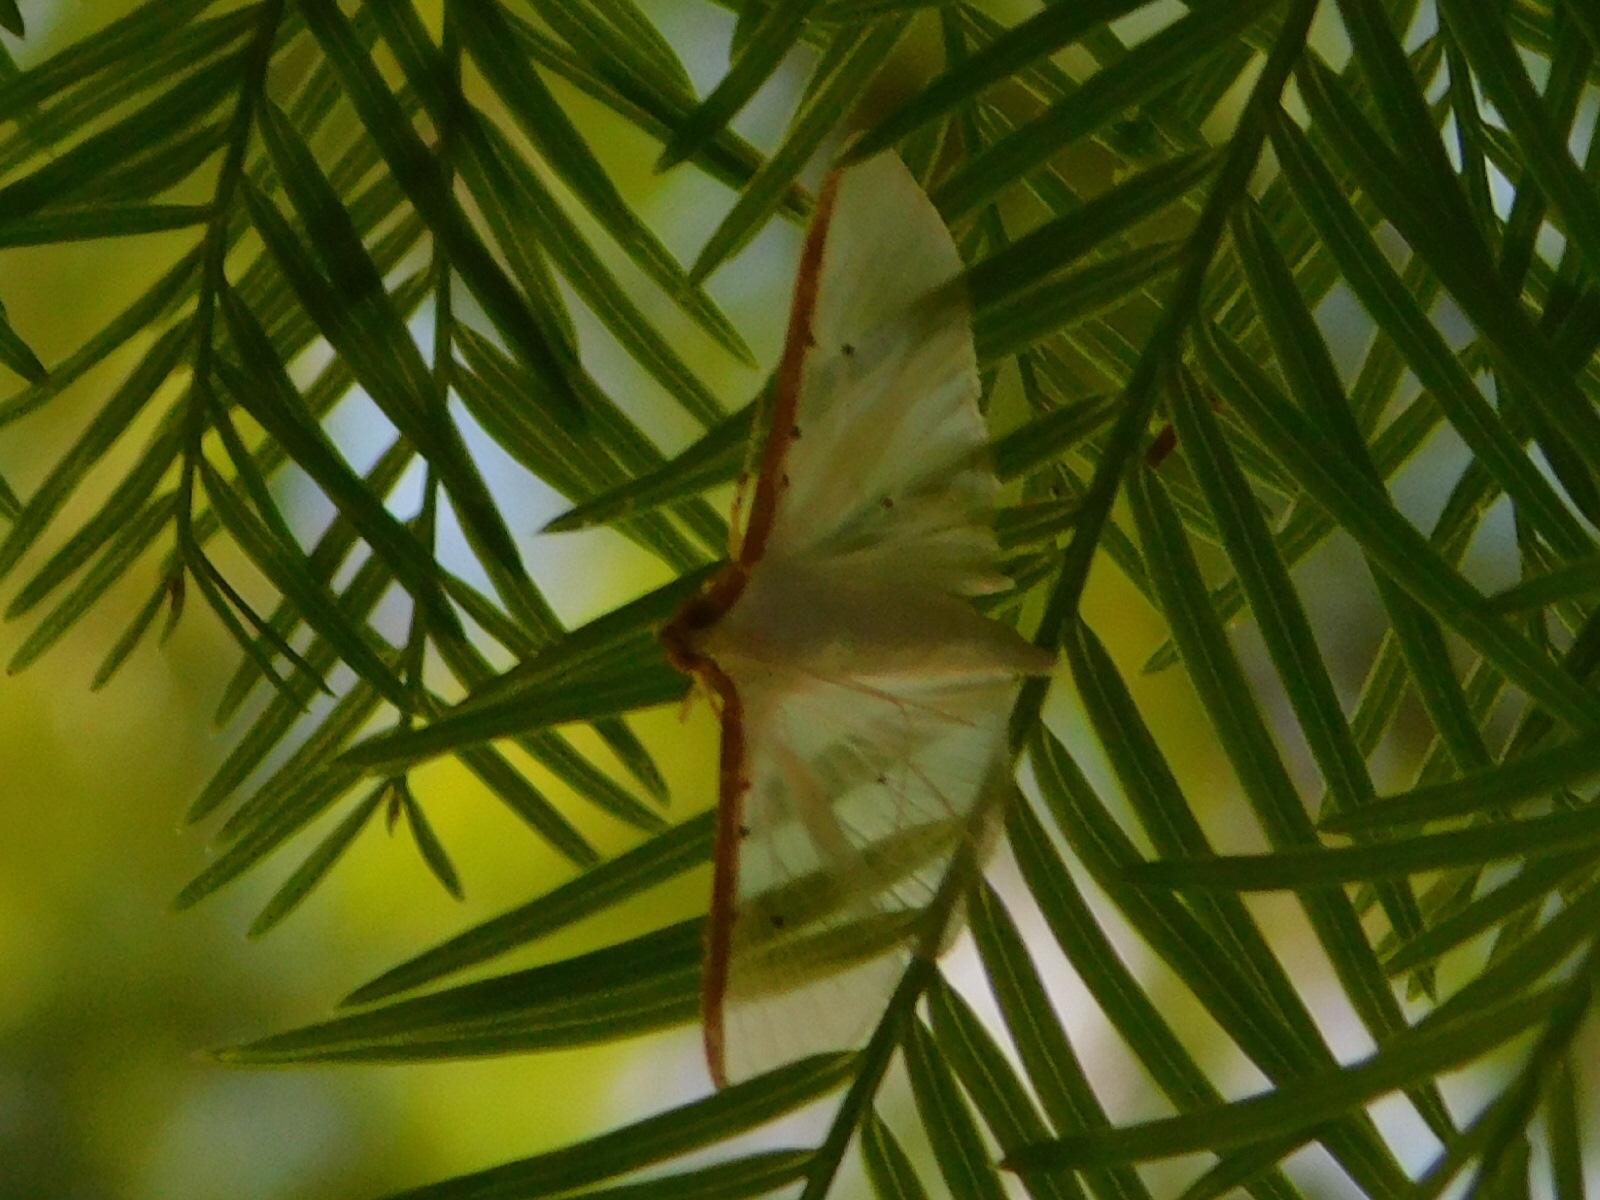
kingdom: Animalia
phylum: Arthropoda
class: Insecta
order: Lepidoptera
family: Crambidae
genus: Palpita
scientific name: Palpita quadristigmalis
